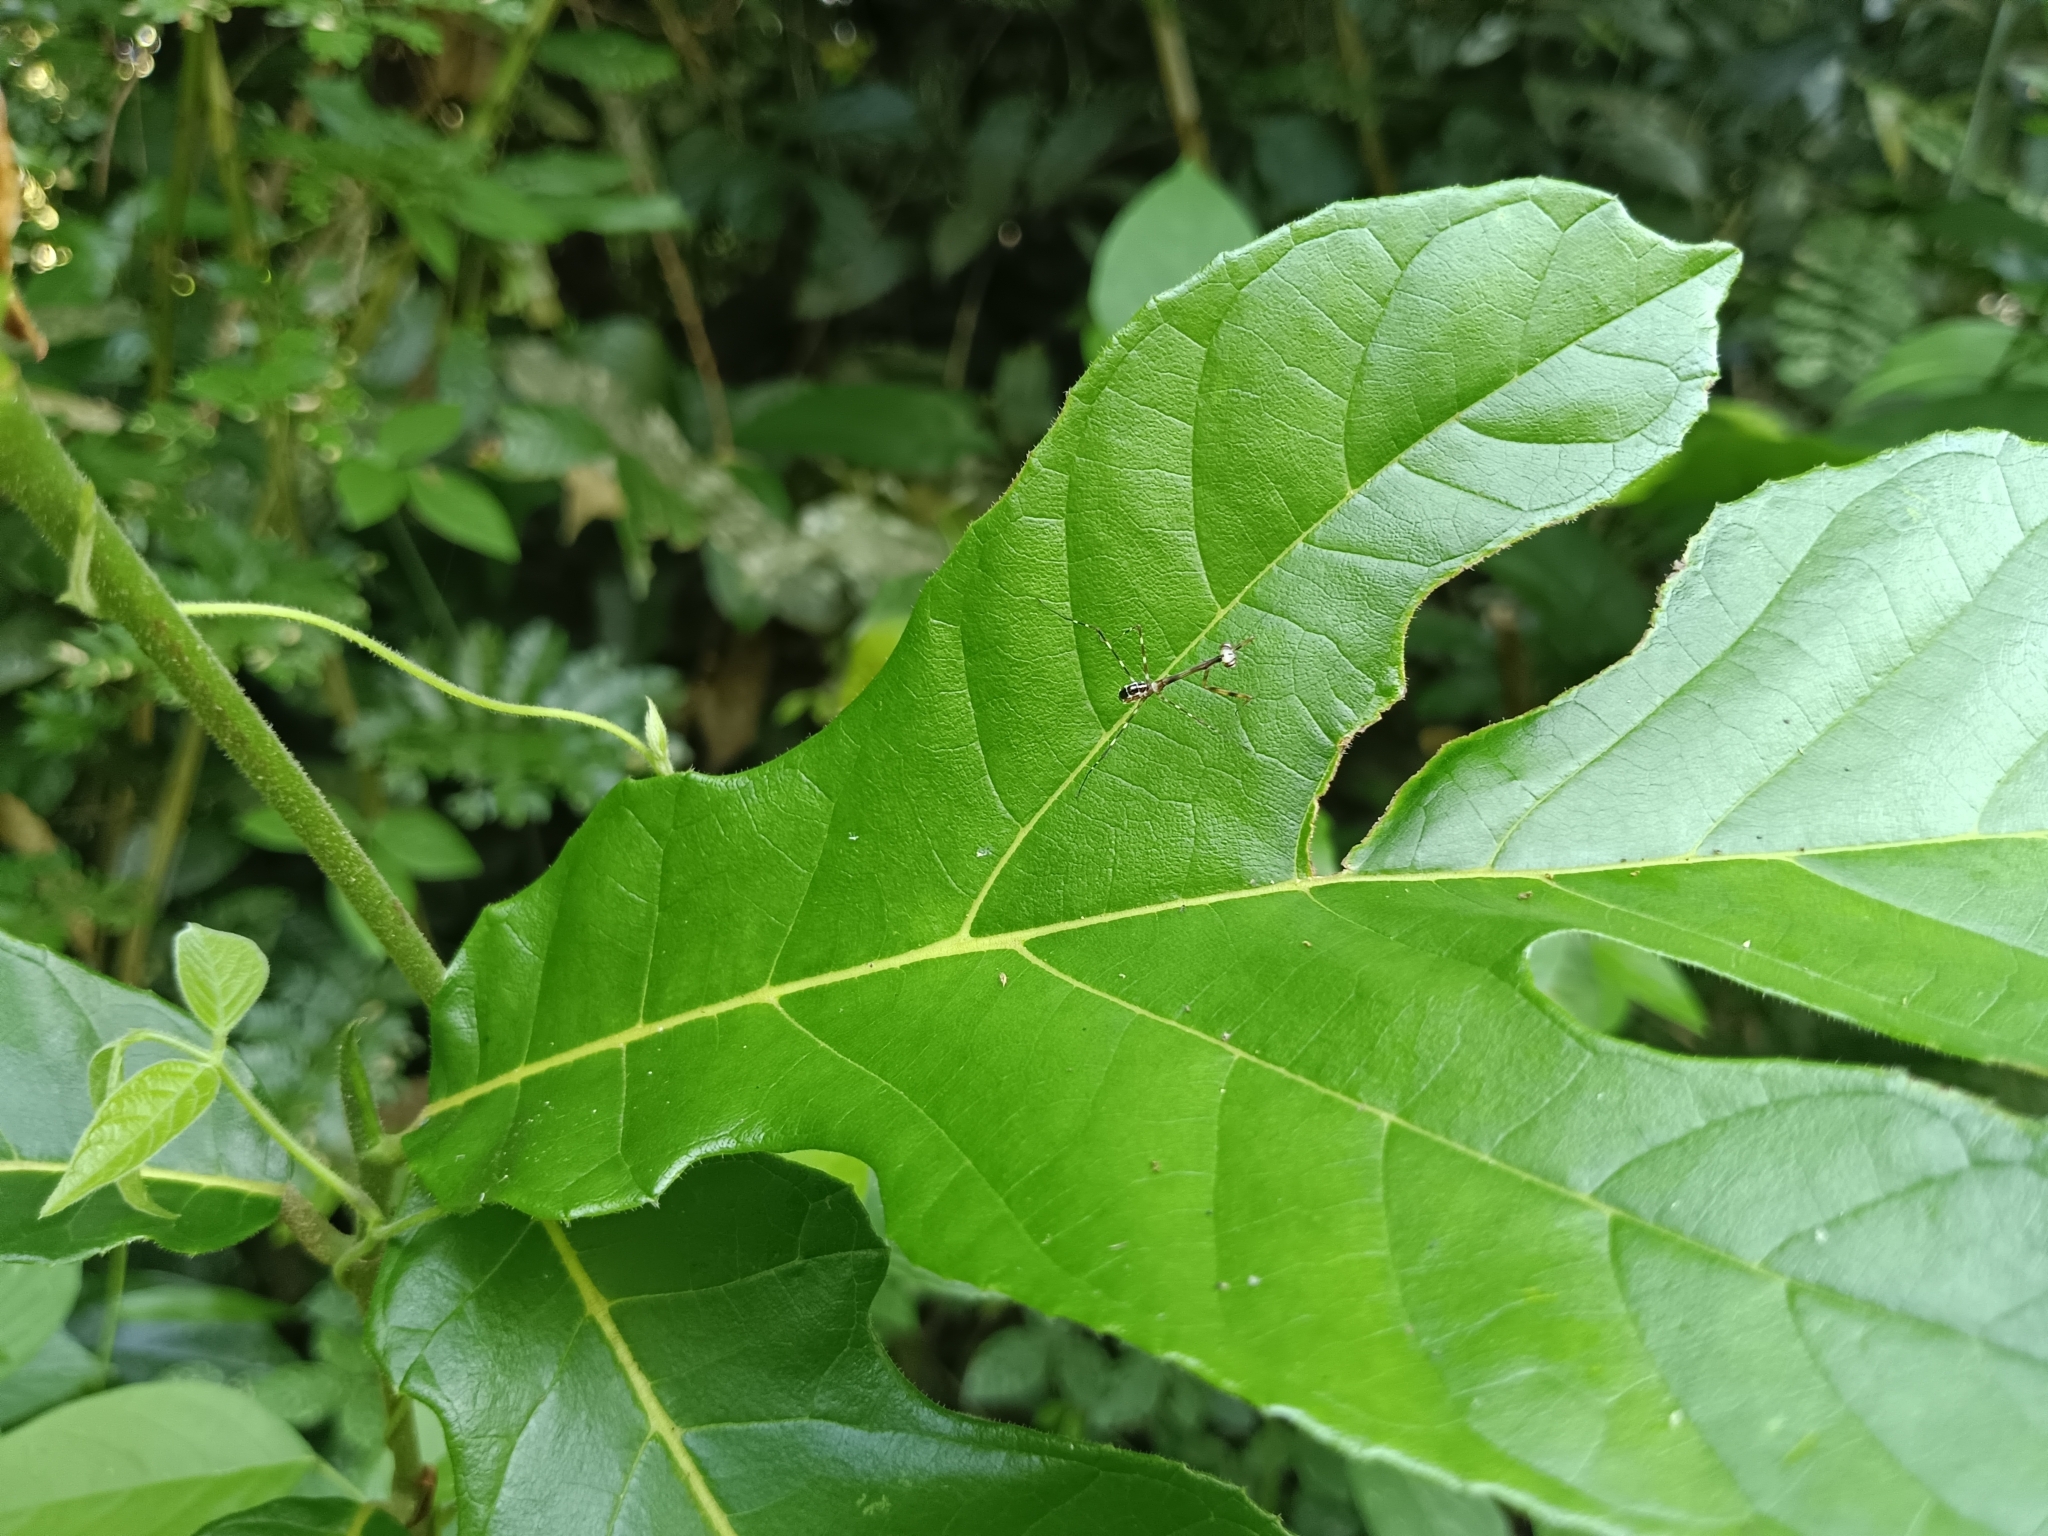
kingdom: Animalia
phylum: Arthropoda
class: Insecta
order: Mantodea
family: Deroplatyidae
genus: Indomenella
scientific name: Indomenella indica
